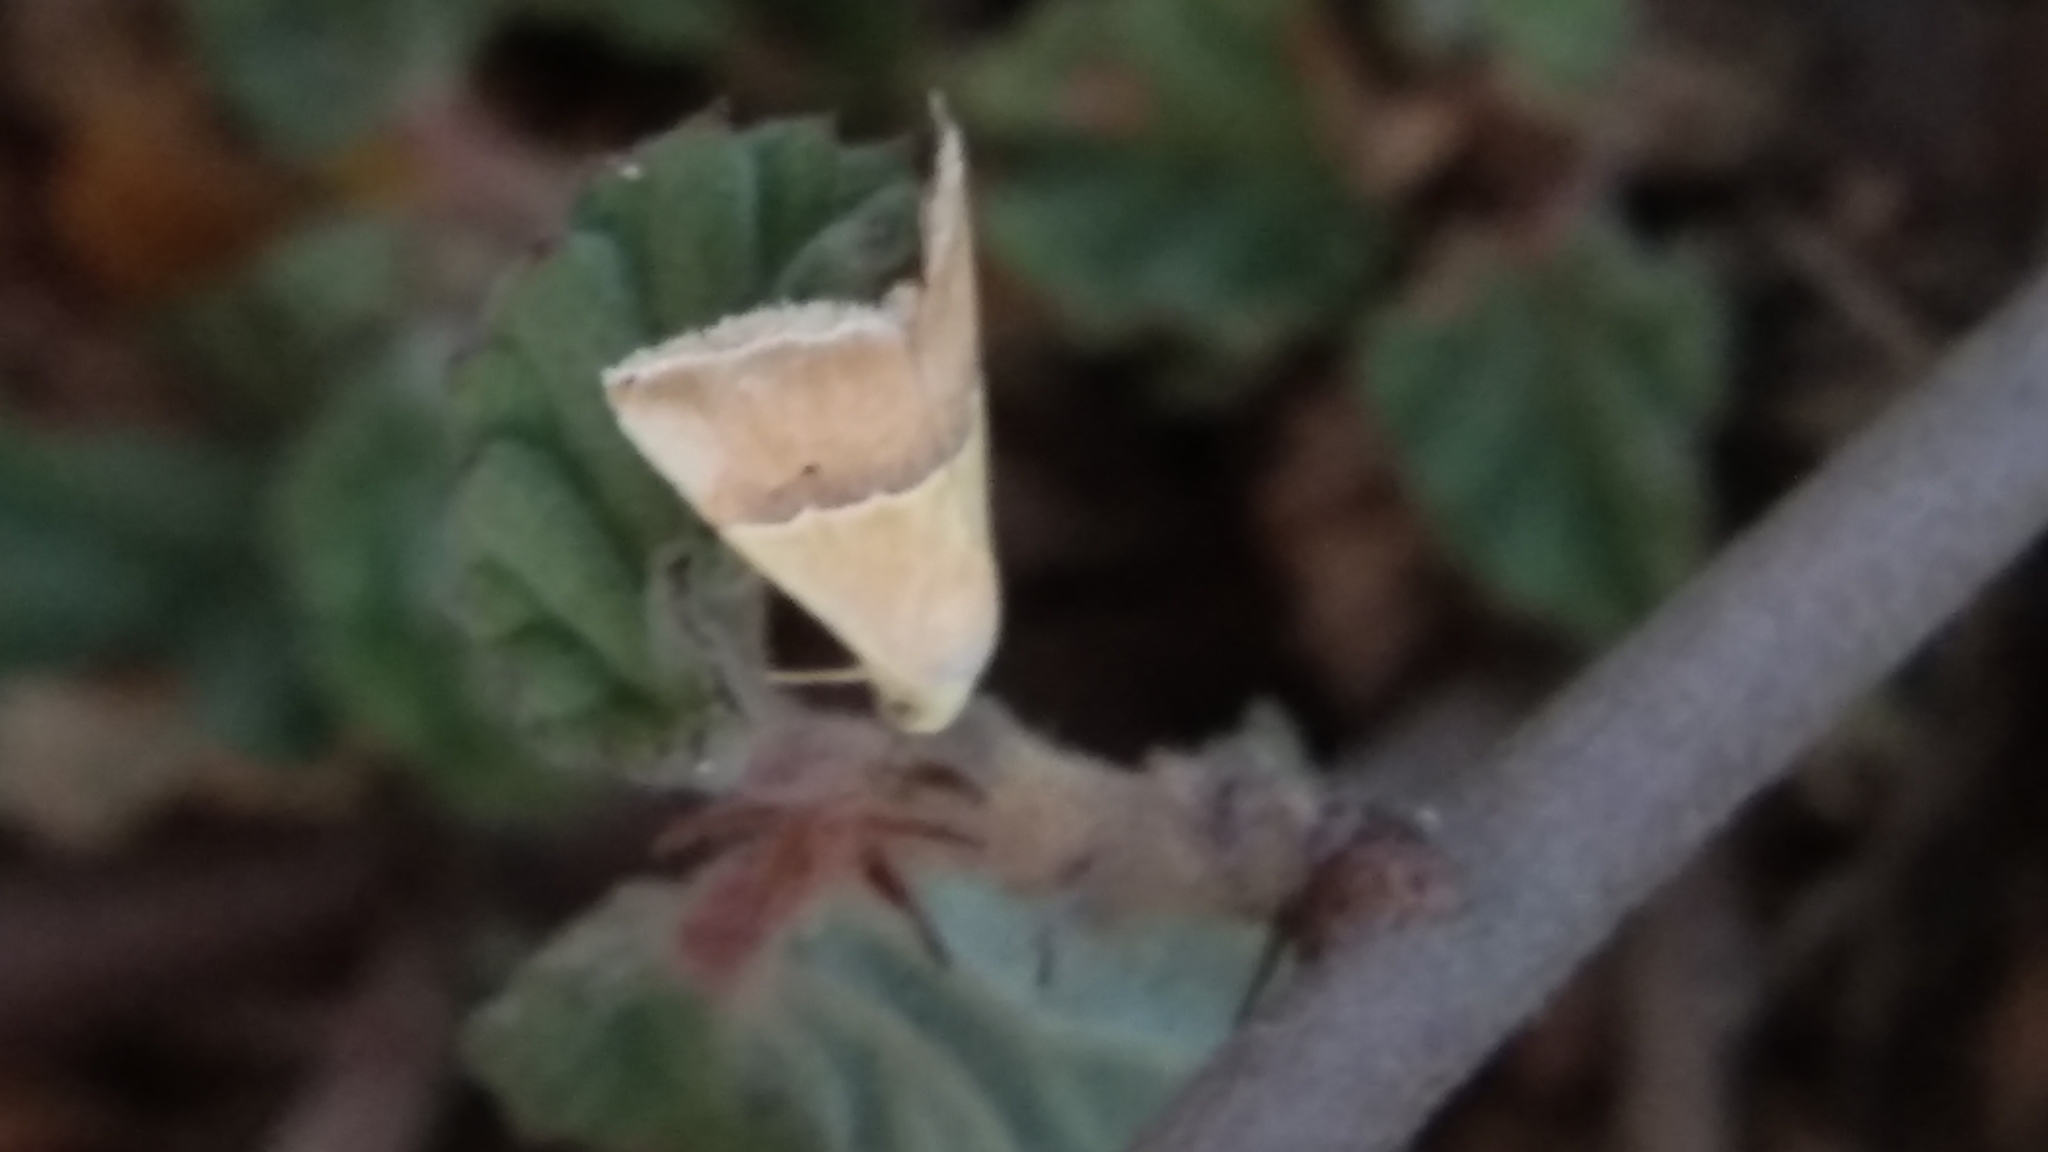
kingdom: Animalia
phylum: Arthropoda
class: Insecta
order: Lepidoptera
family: Noctuidae
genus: Eublemma
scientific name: Eublemma accedens
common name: Moth
